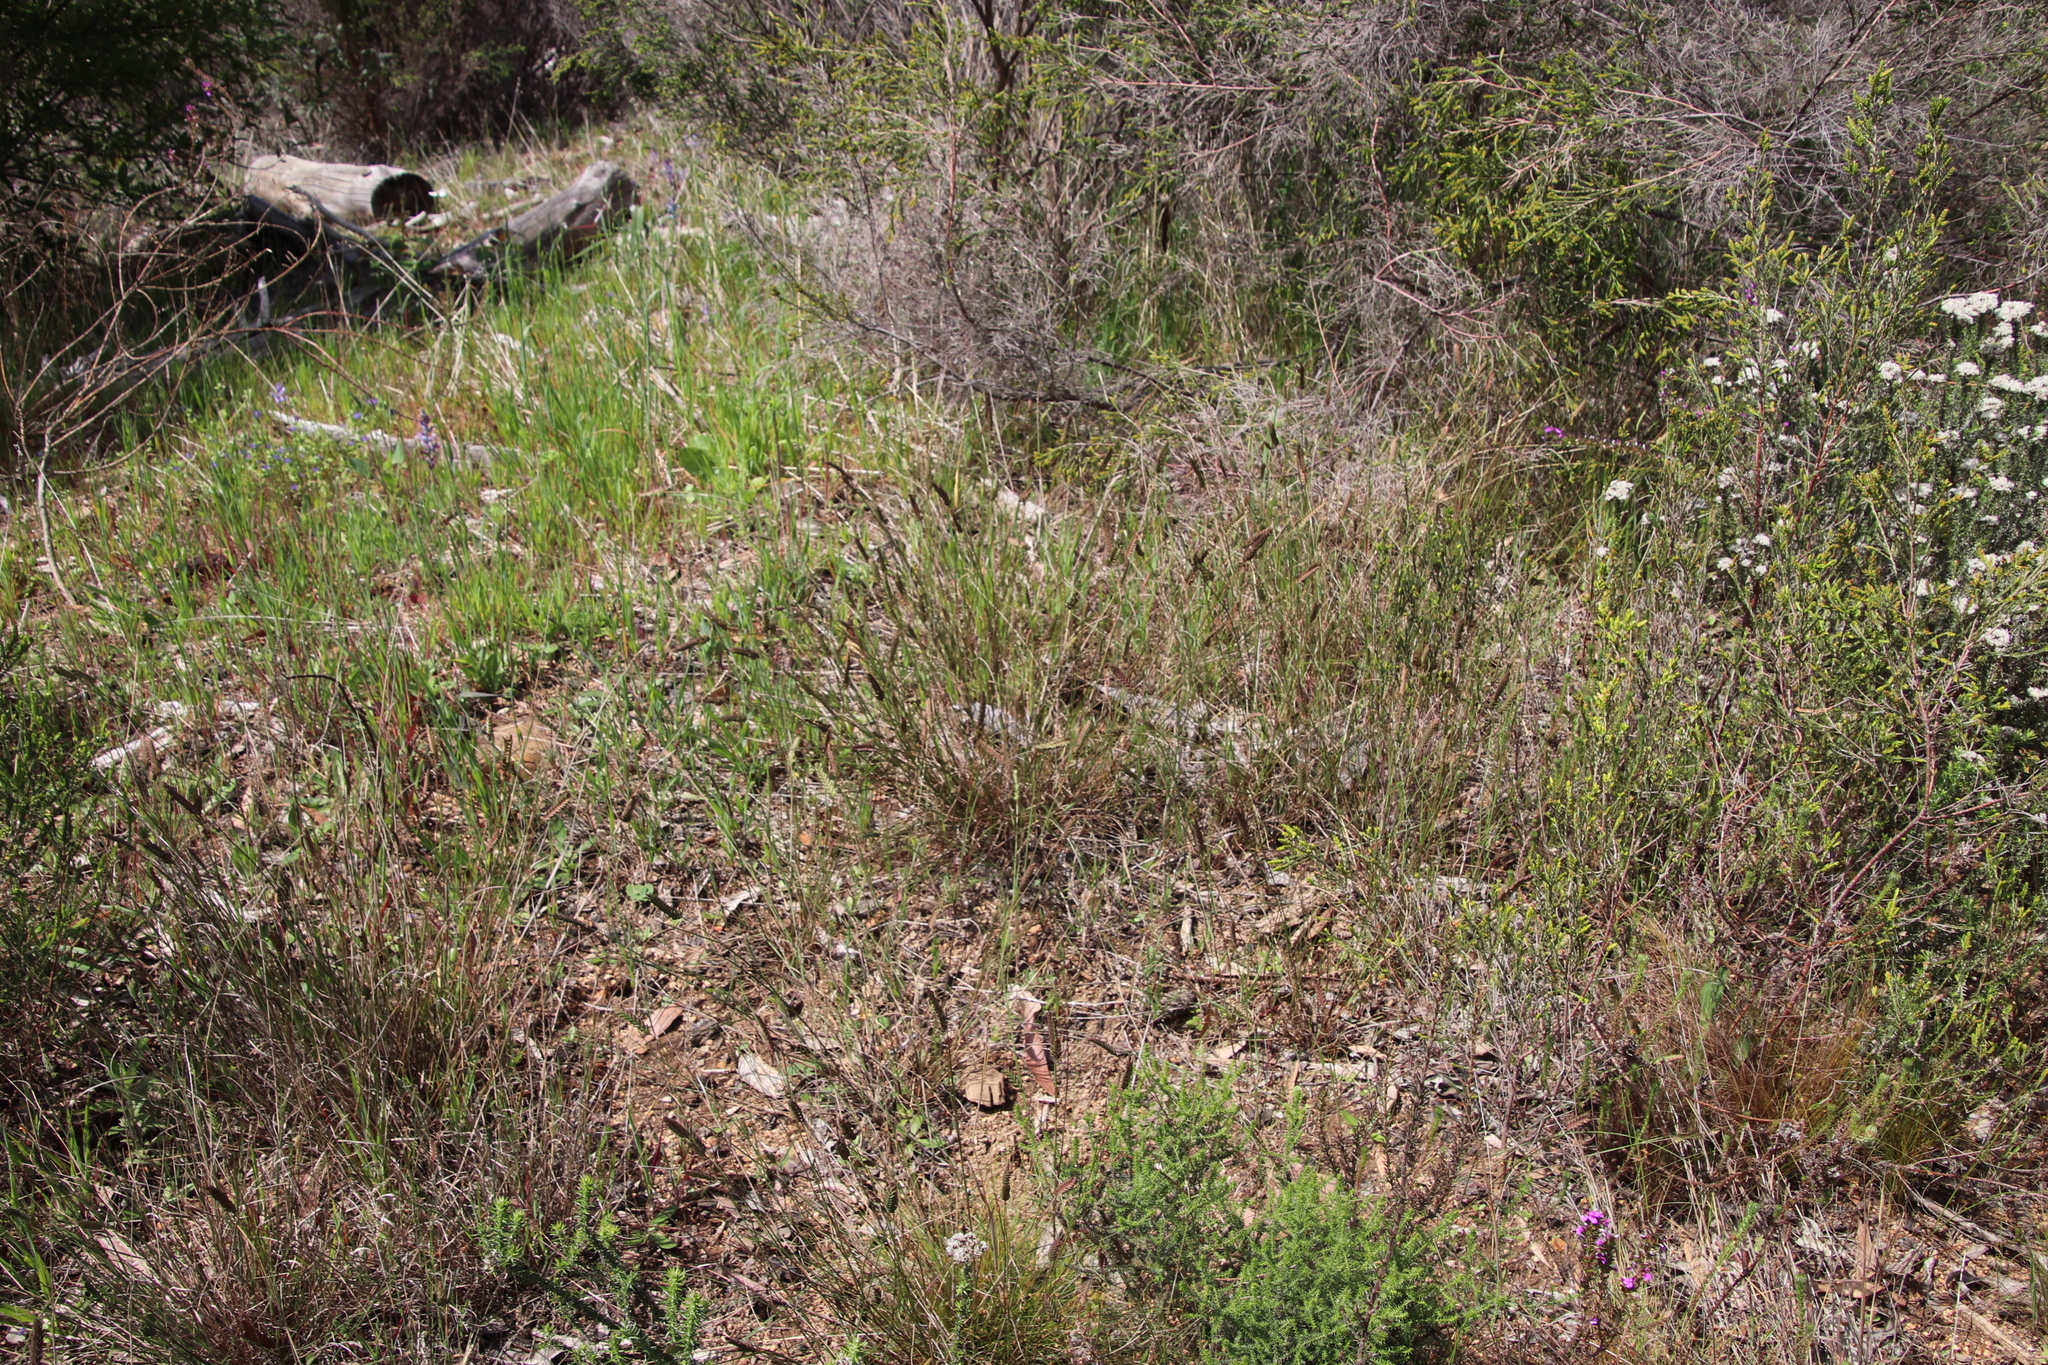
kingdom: Plantae
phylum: Tracheophyta
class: Liliopsida
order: Poales
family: Poaceae
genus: Tribolium
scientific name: Tribolium uniolae
